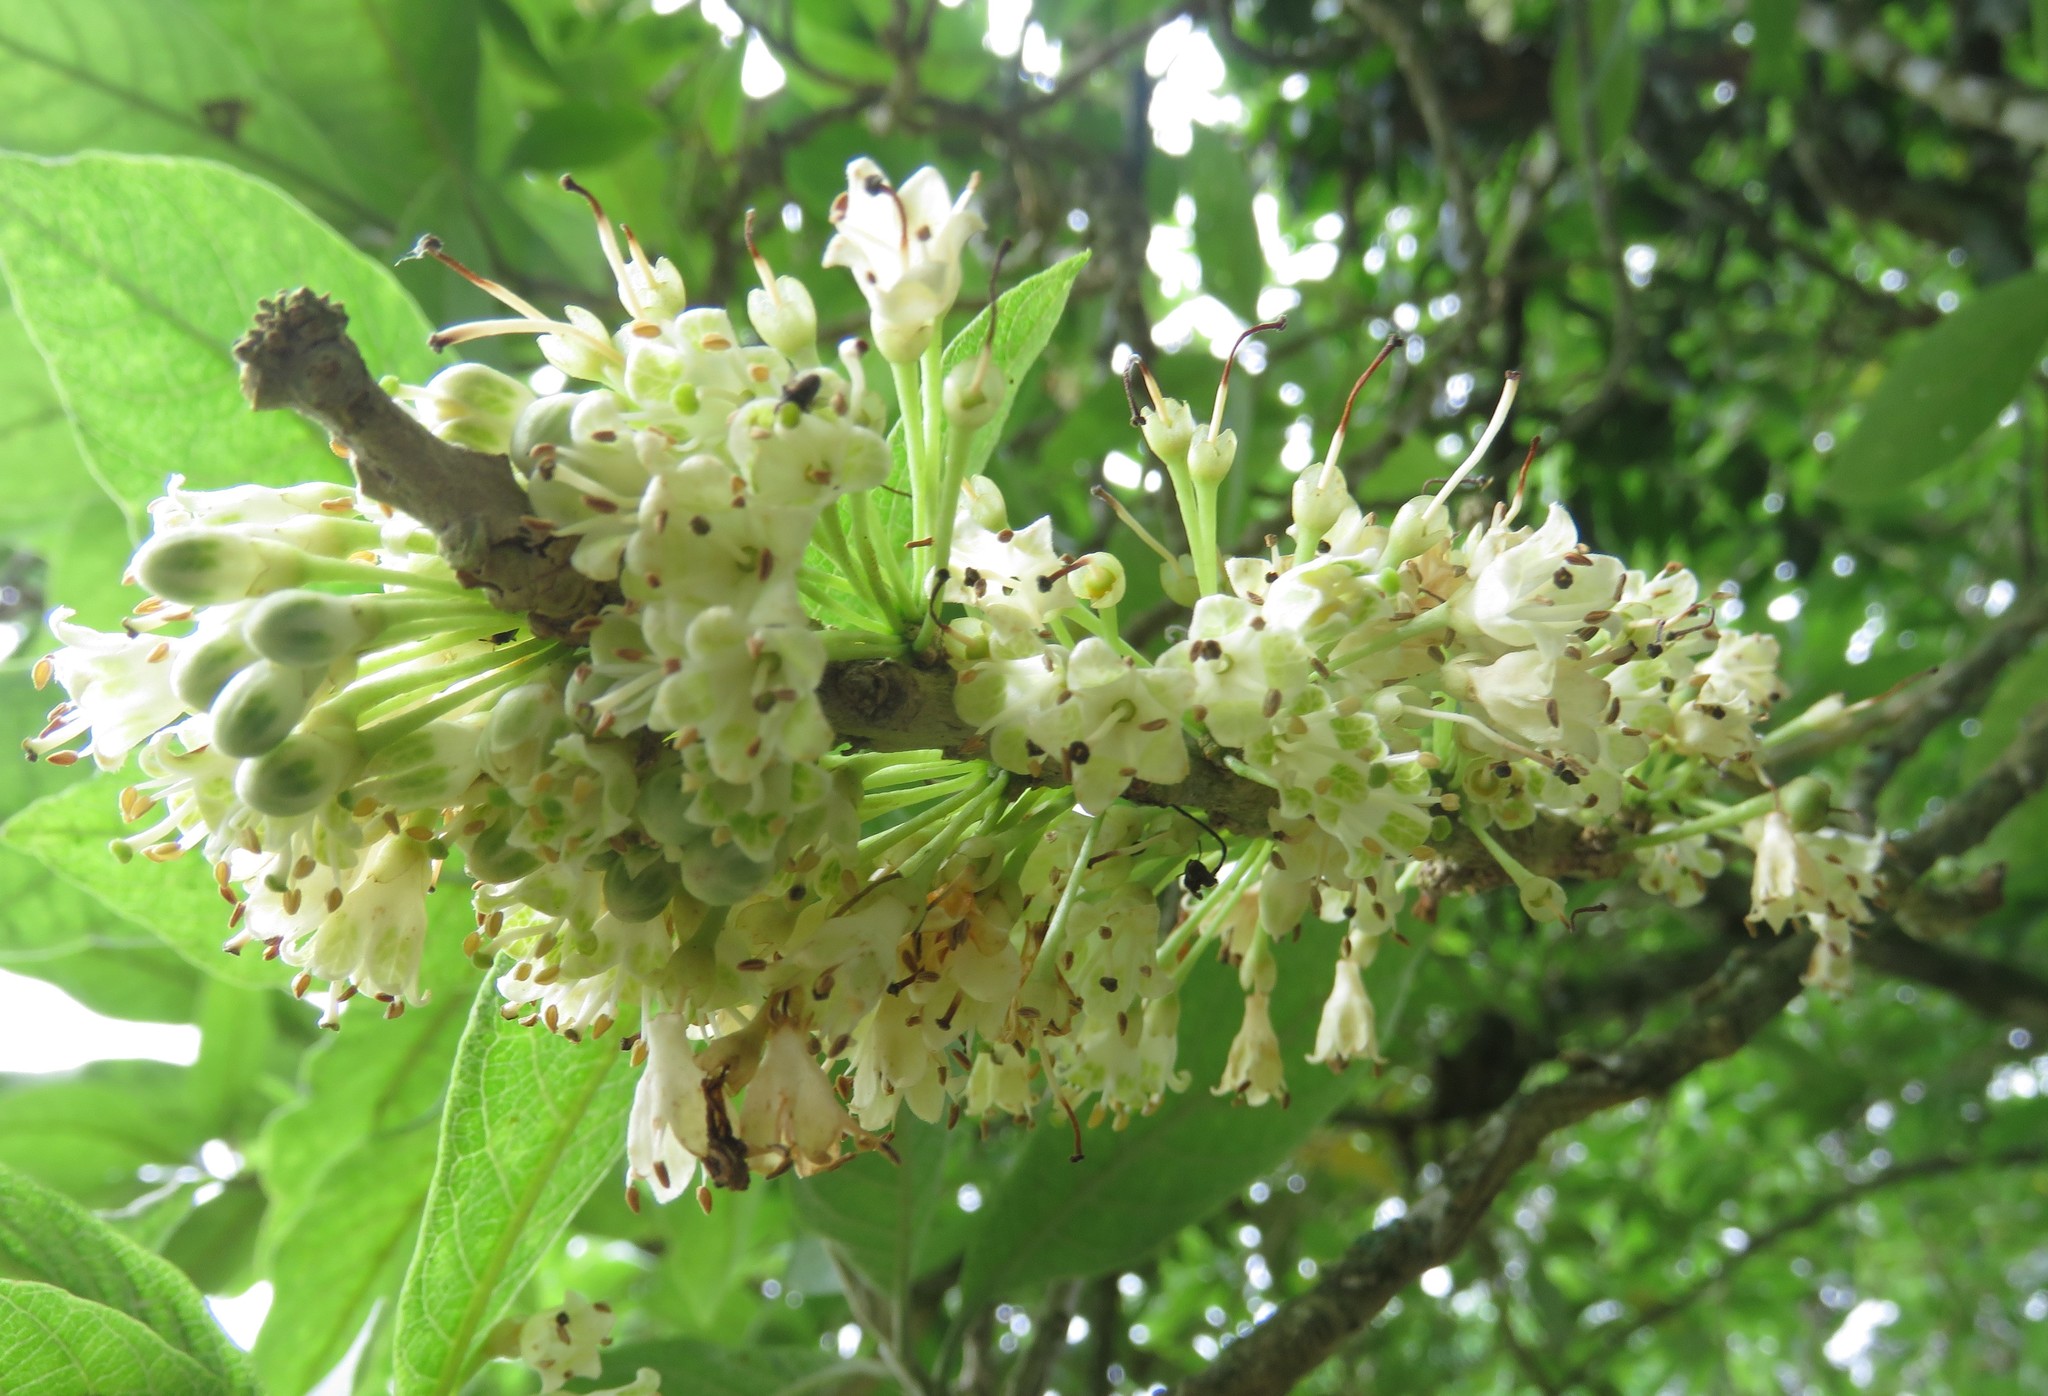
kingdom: Plantae
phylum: Tracheophyta
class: Magnoliopsida
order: Solanales
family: Solanaceae
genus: Iochroma
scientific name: Iochroma arborescens
